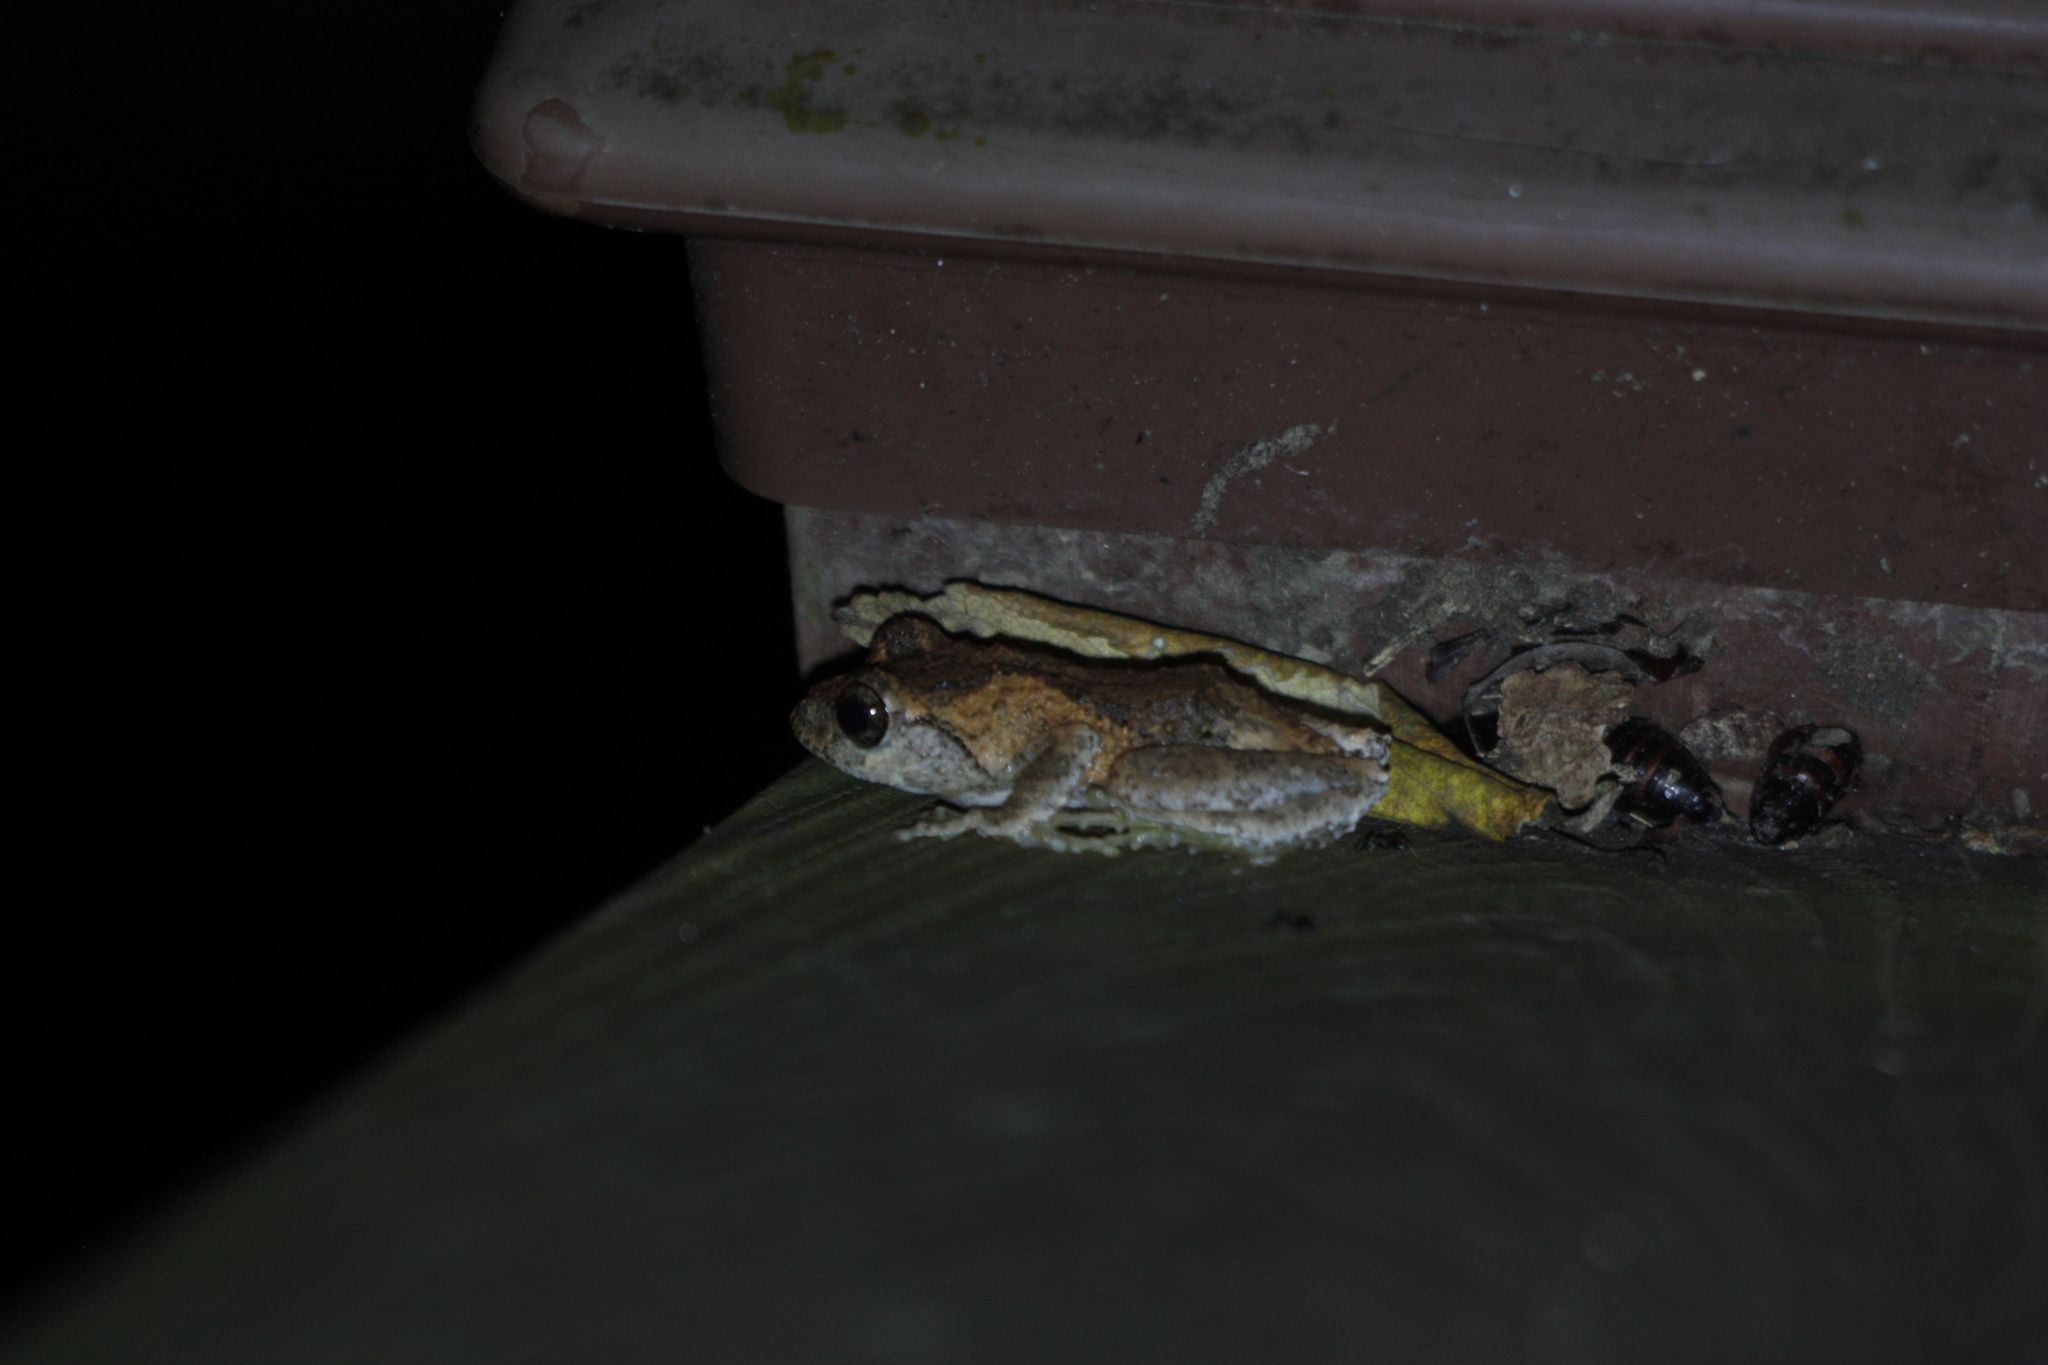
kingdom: Animalia
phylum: Chordata
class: Amphibia
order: Anura
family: Rhacophoridae
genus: Kurixalus
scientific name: Kurixalus idiootocus
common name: Temple treefrog
